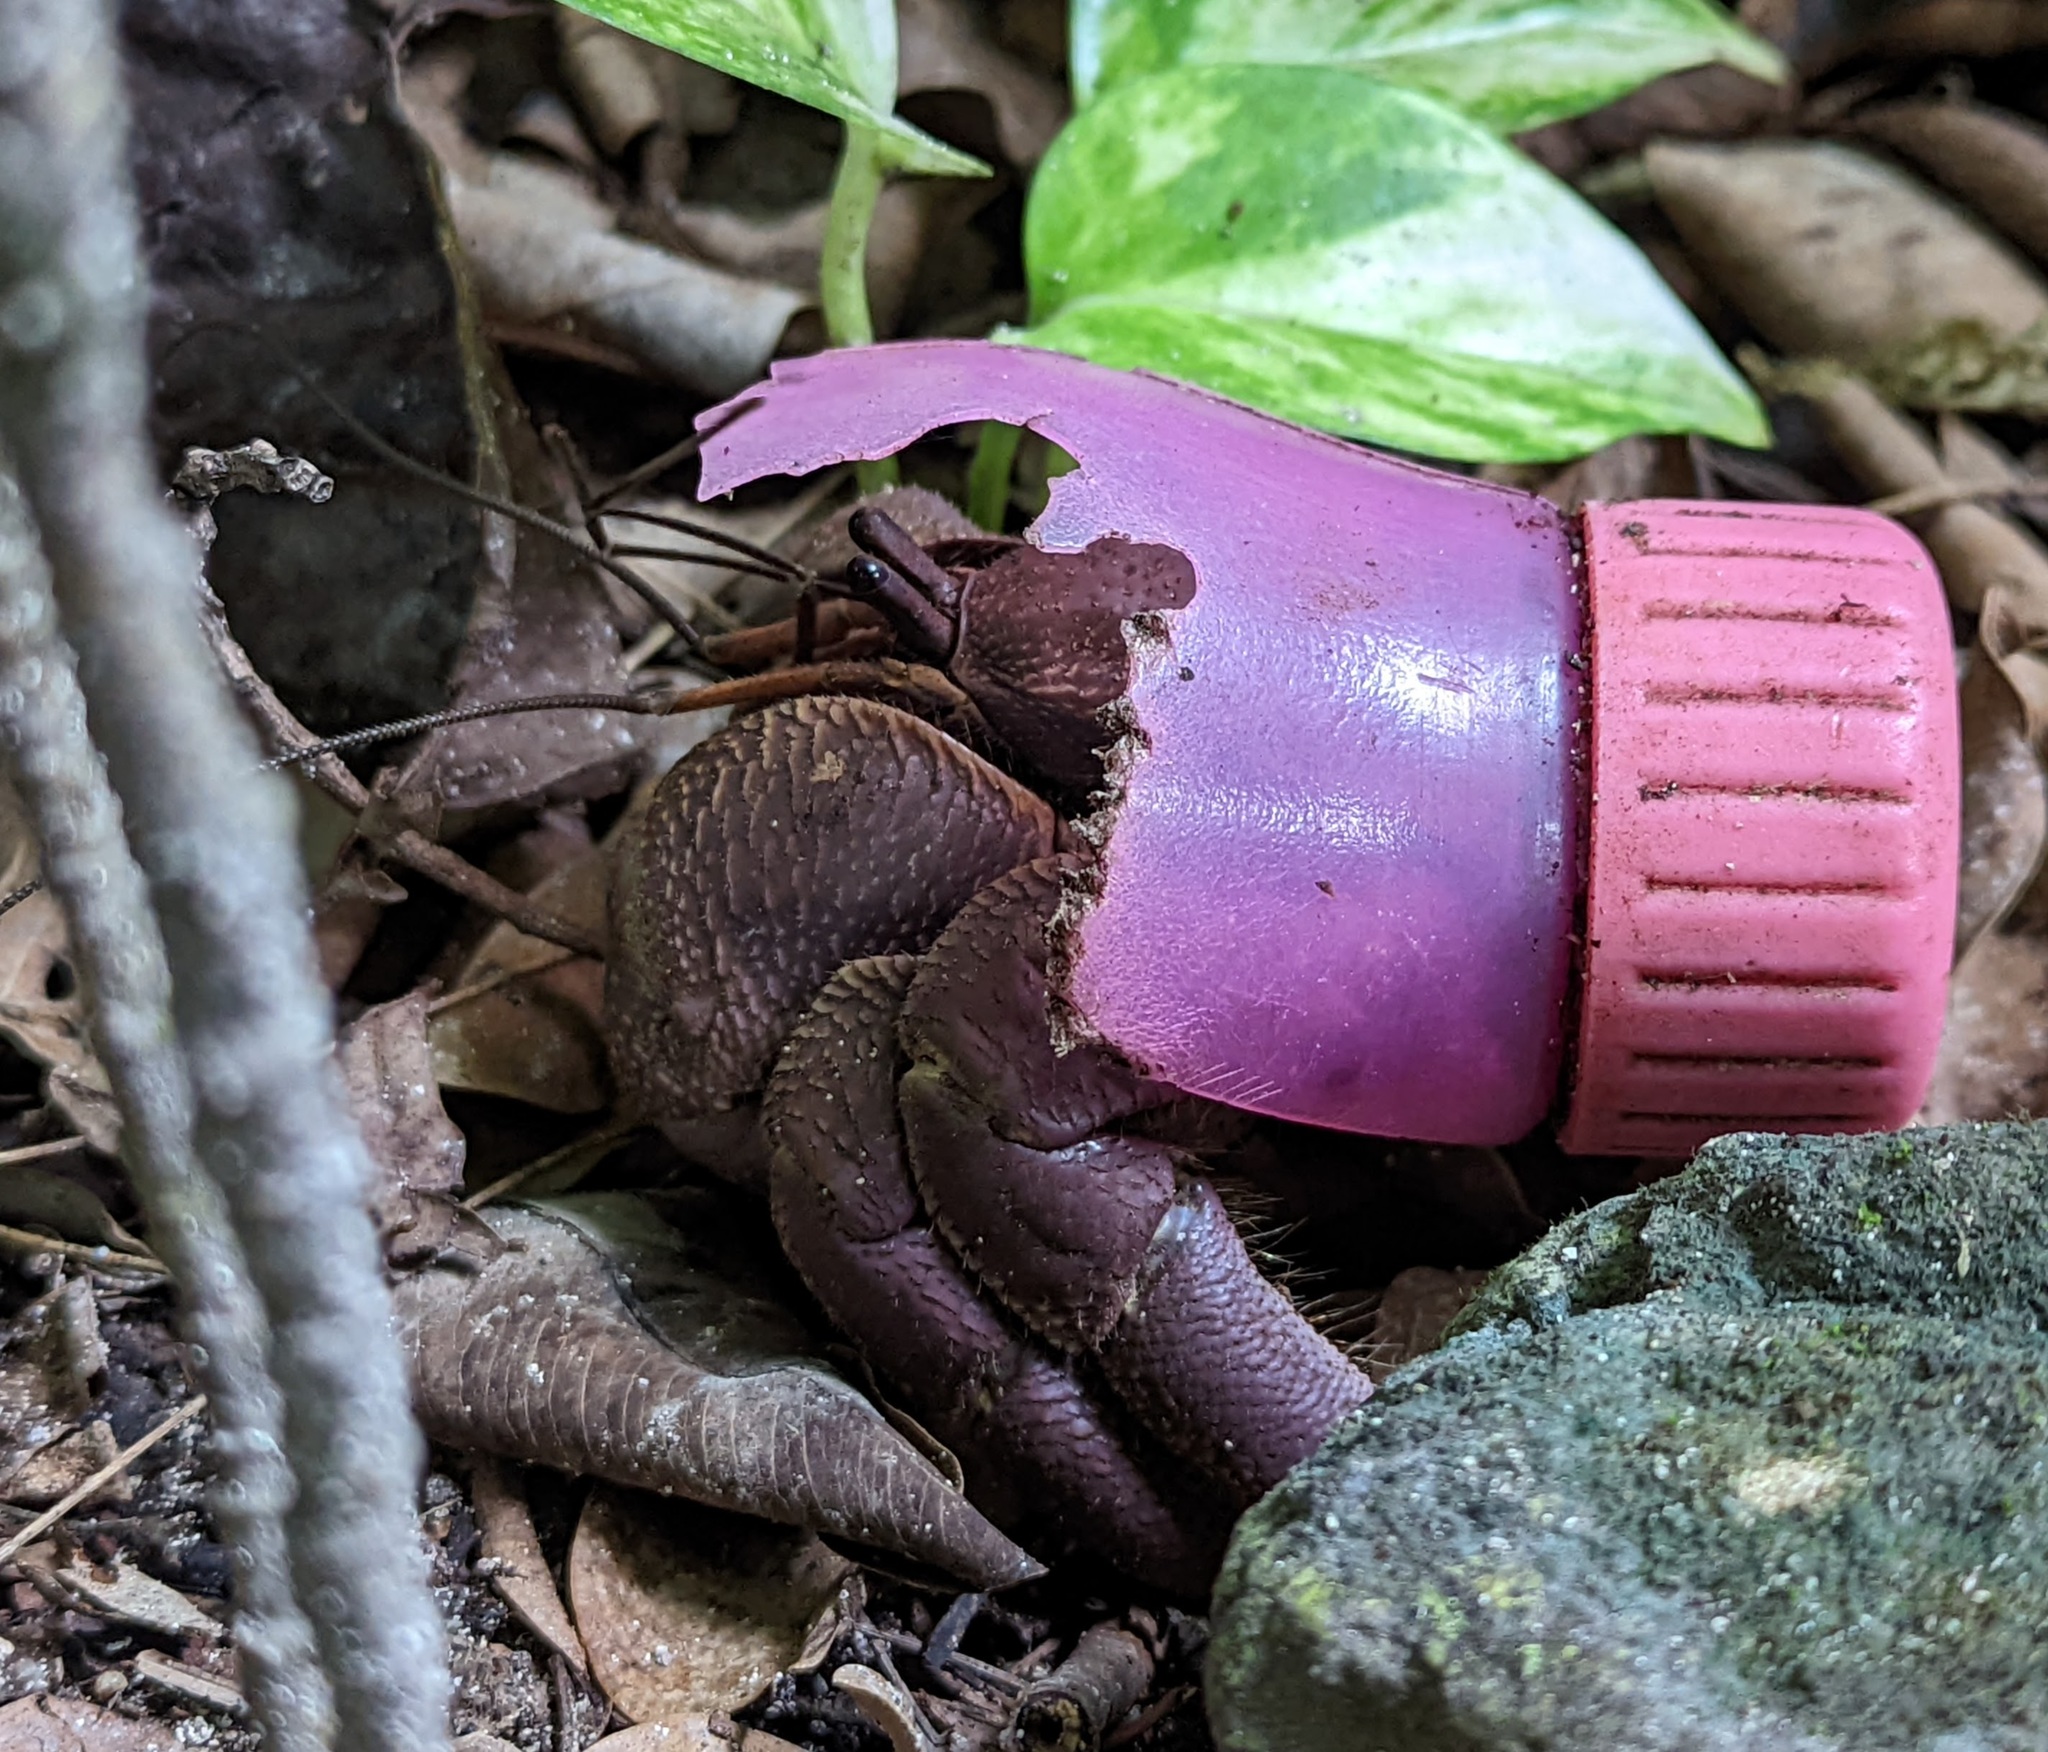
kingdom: Animalia
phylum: Arthropoda
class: Malacostraca
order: Decapoda
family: Coenobitidae
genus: Coenobita
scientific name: Coenobita brevimanus
